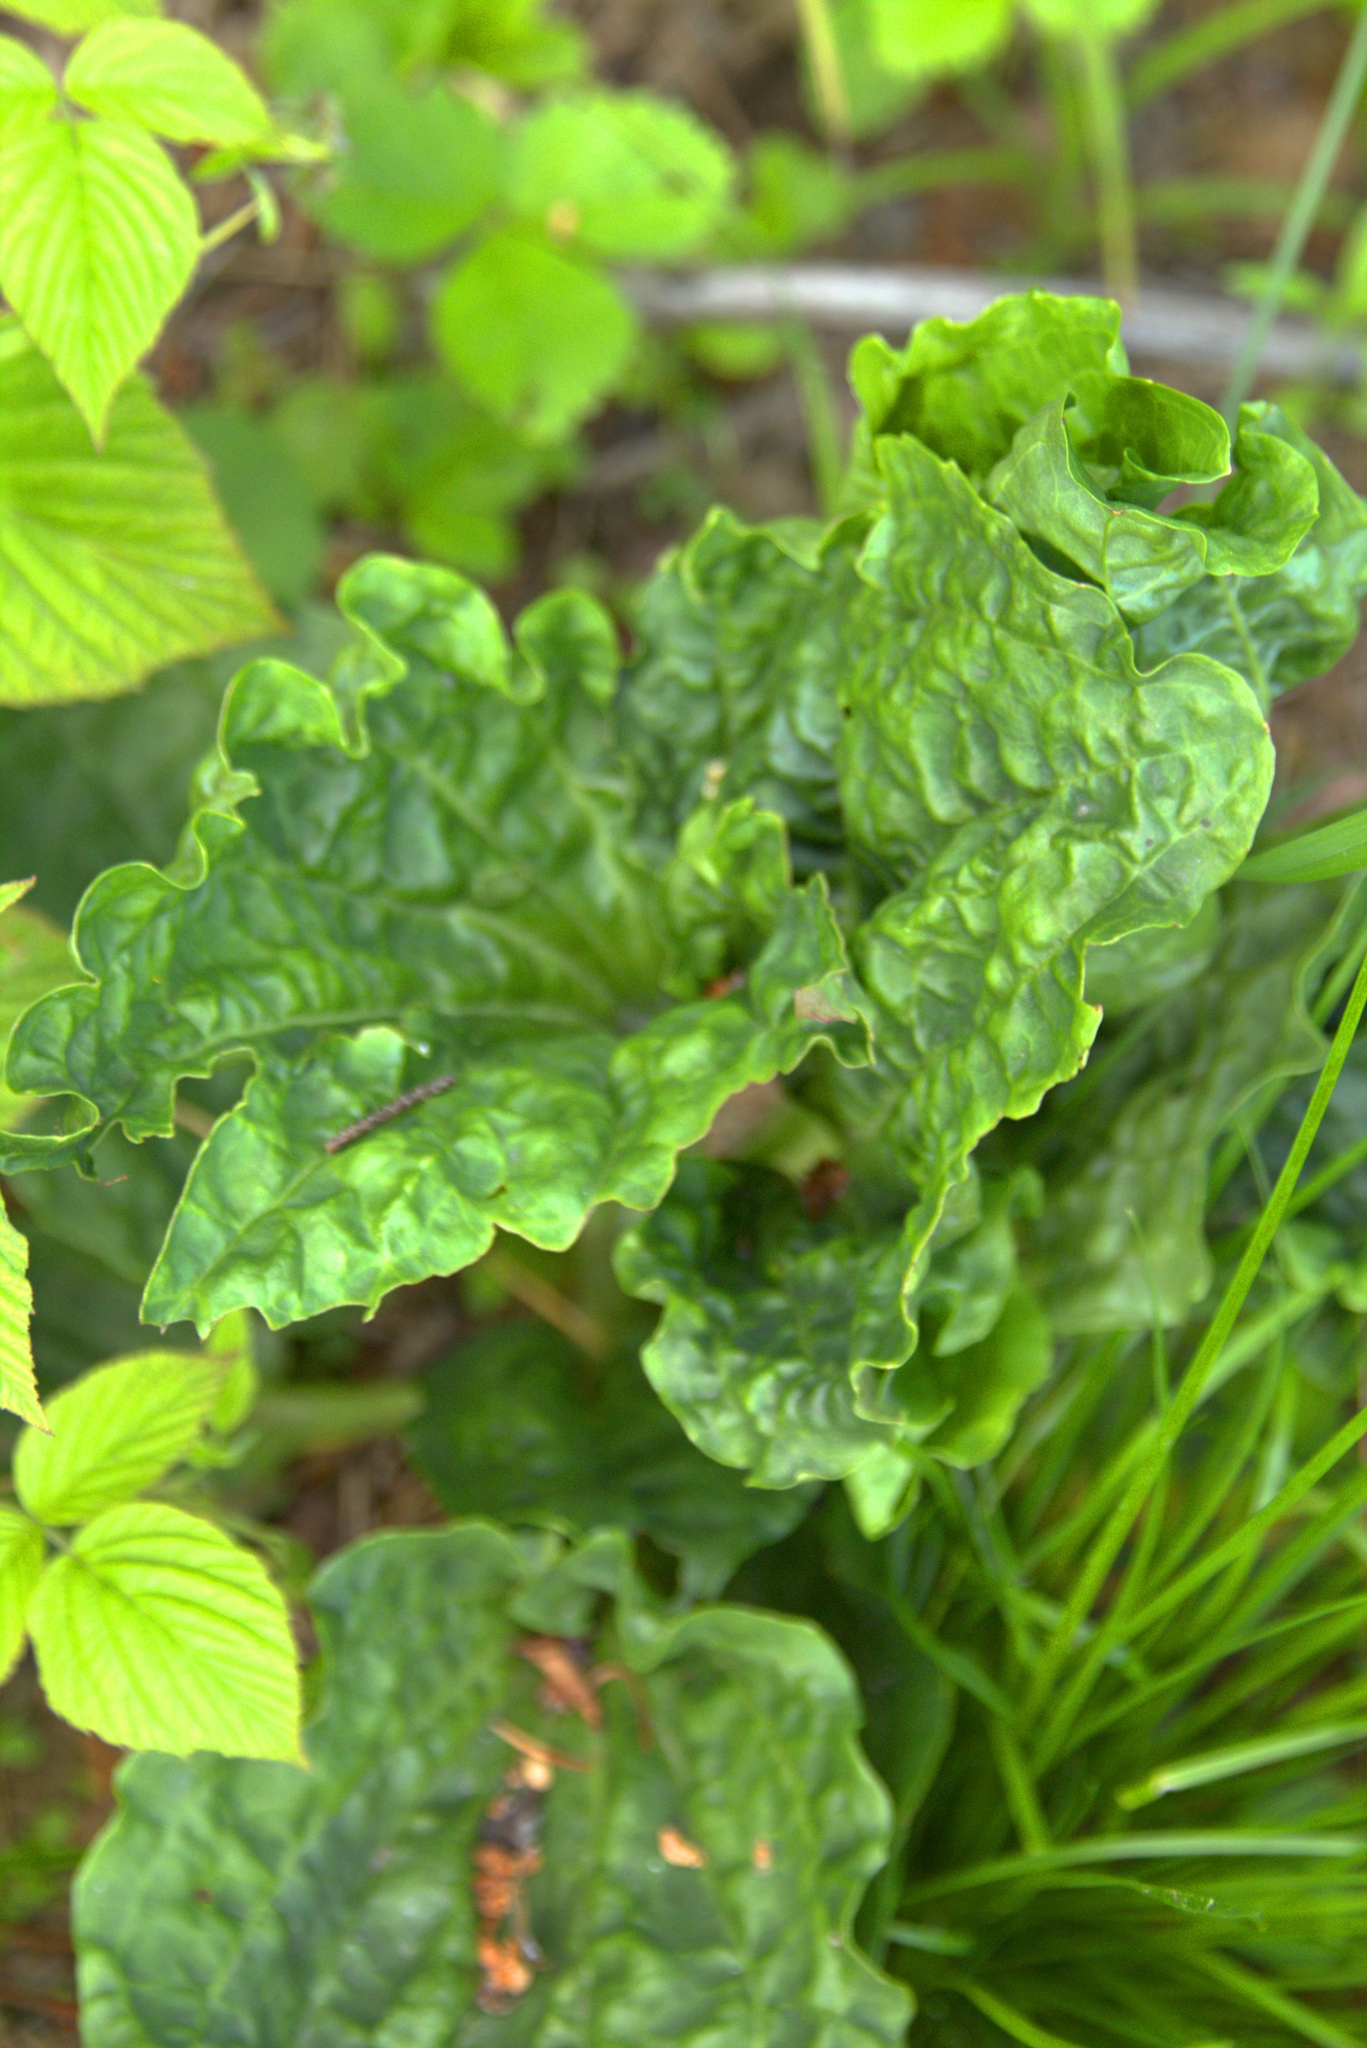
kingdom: Plantae
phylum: Tracheophyta
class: Magnoliopsida
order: Lamiales
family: Plantaginaceae
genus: Plantago
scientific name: Plantago major
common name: Common plantain
